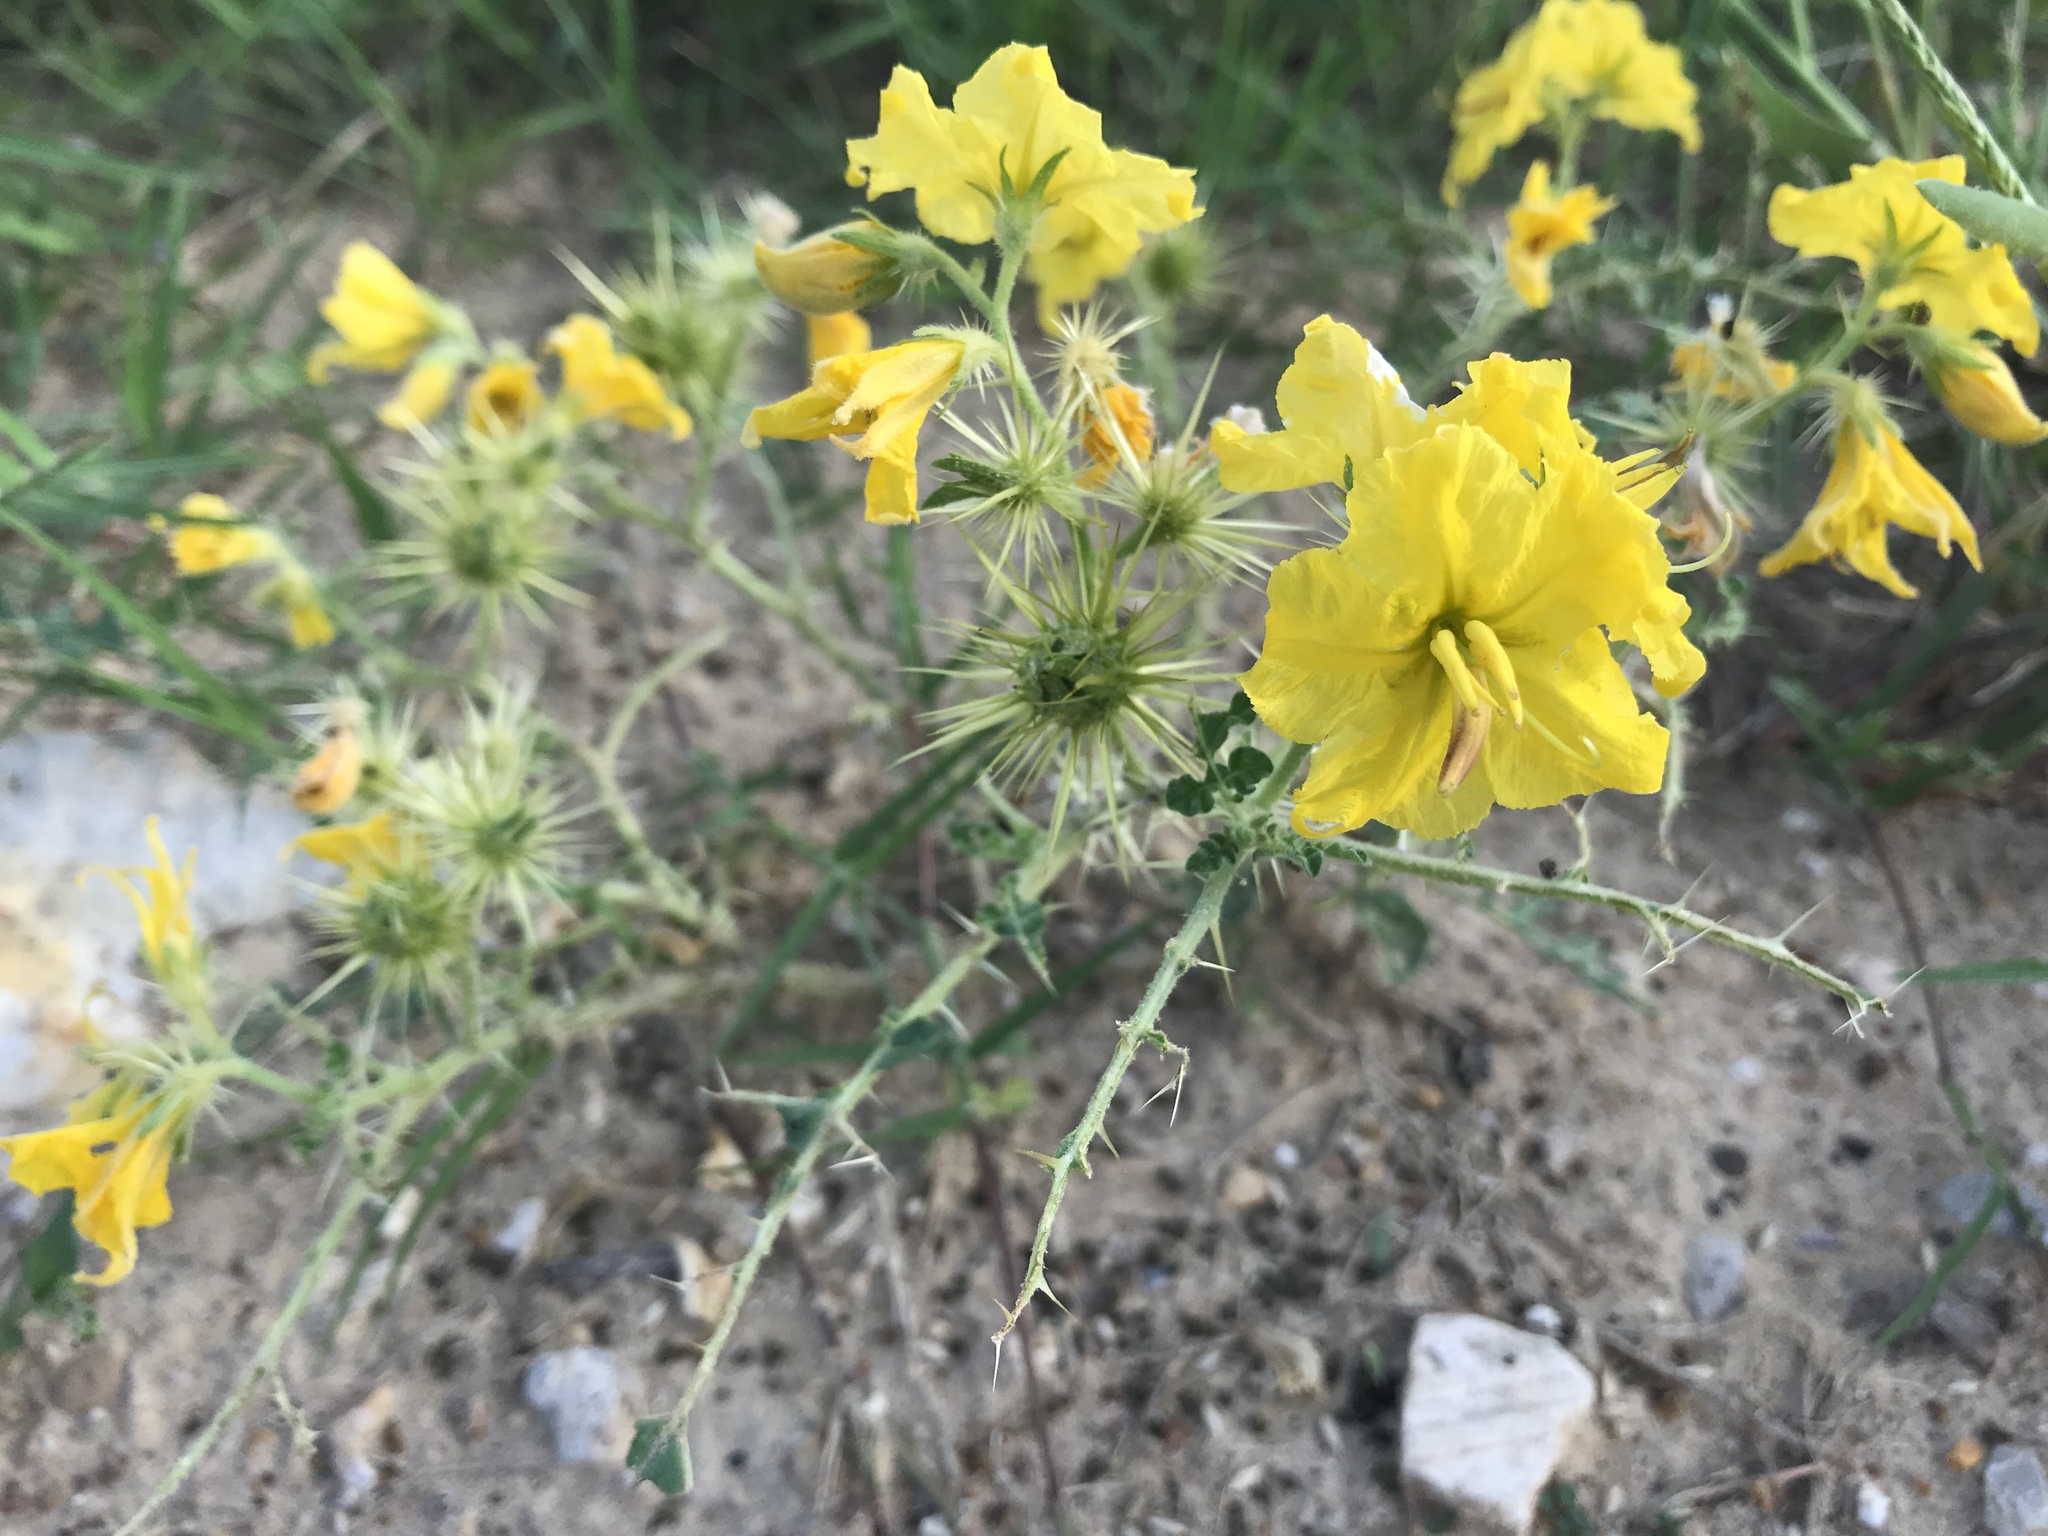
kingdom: Plantae
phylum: Tracheophyta
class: Magnoliopsida
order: Solanales
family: Solanaceae
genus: Solanum
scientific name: Solanum angustifolium
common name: Buffalobur nightshade
